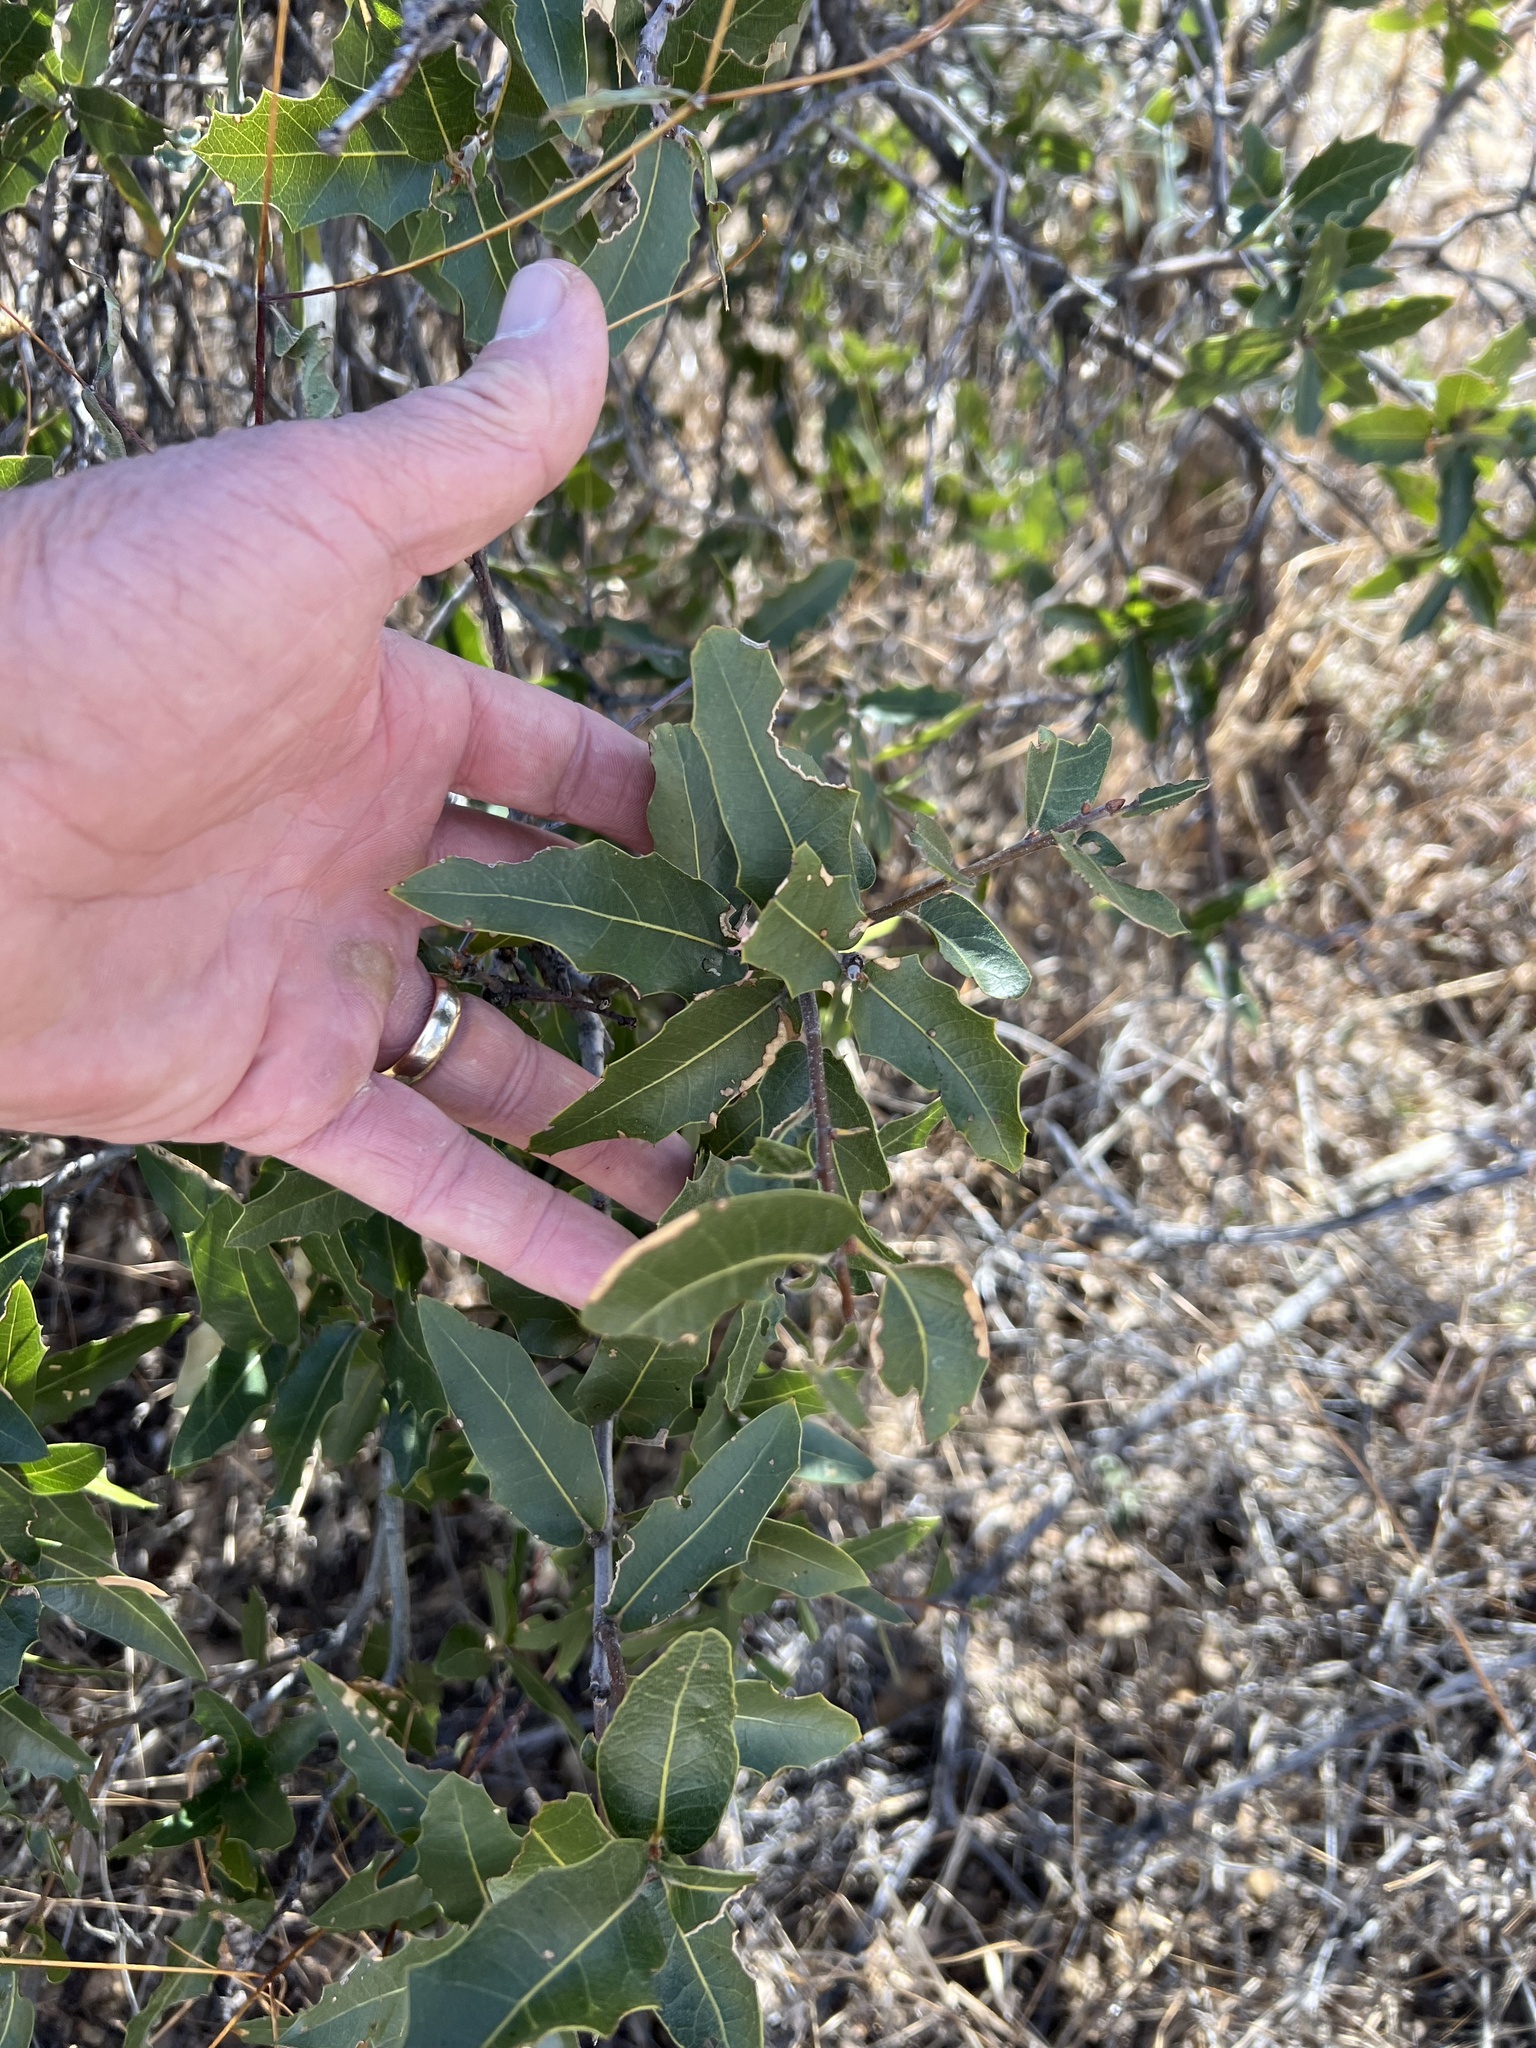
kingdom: Plantae
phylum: Tracheophyta
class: Magnoliopsida
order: Fagales
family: Fagaceae
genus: Quercus
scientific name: Quercus emoryi
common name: Emory oak
